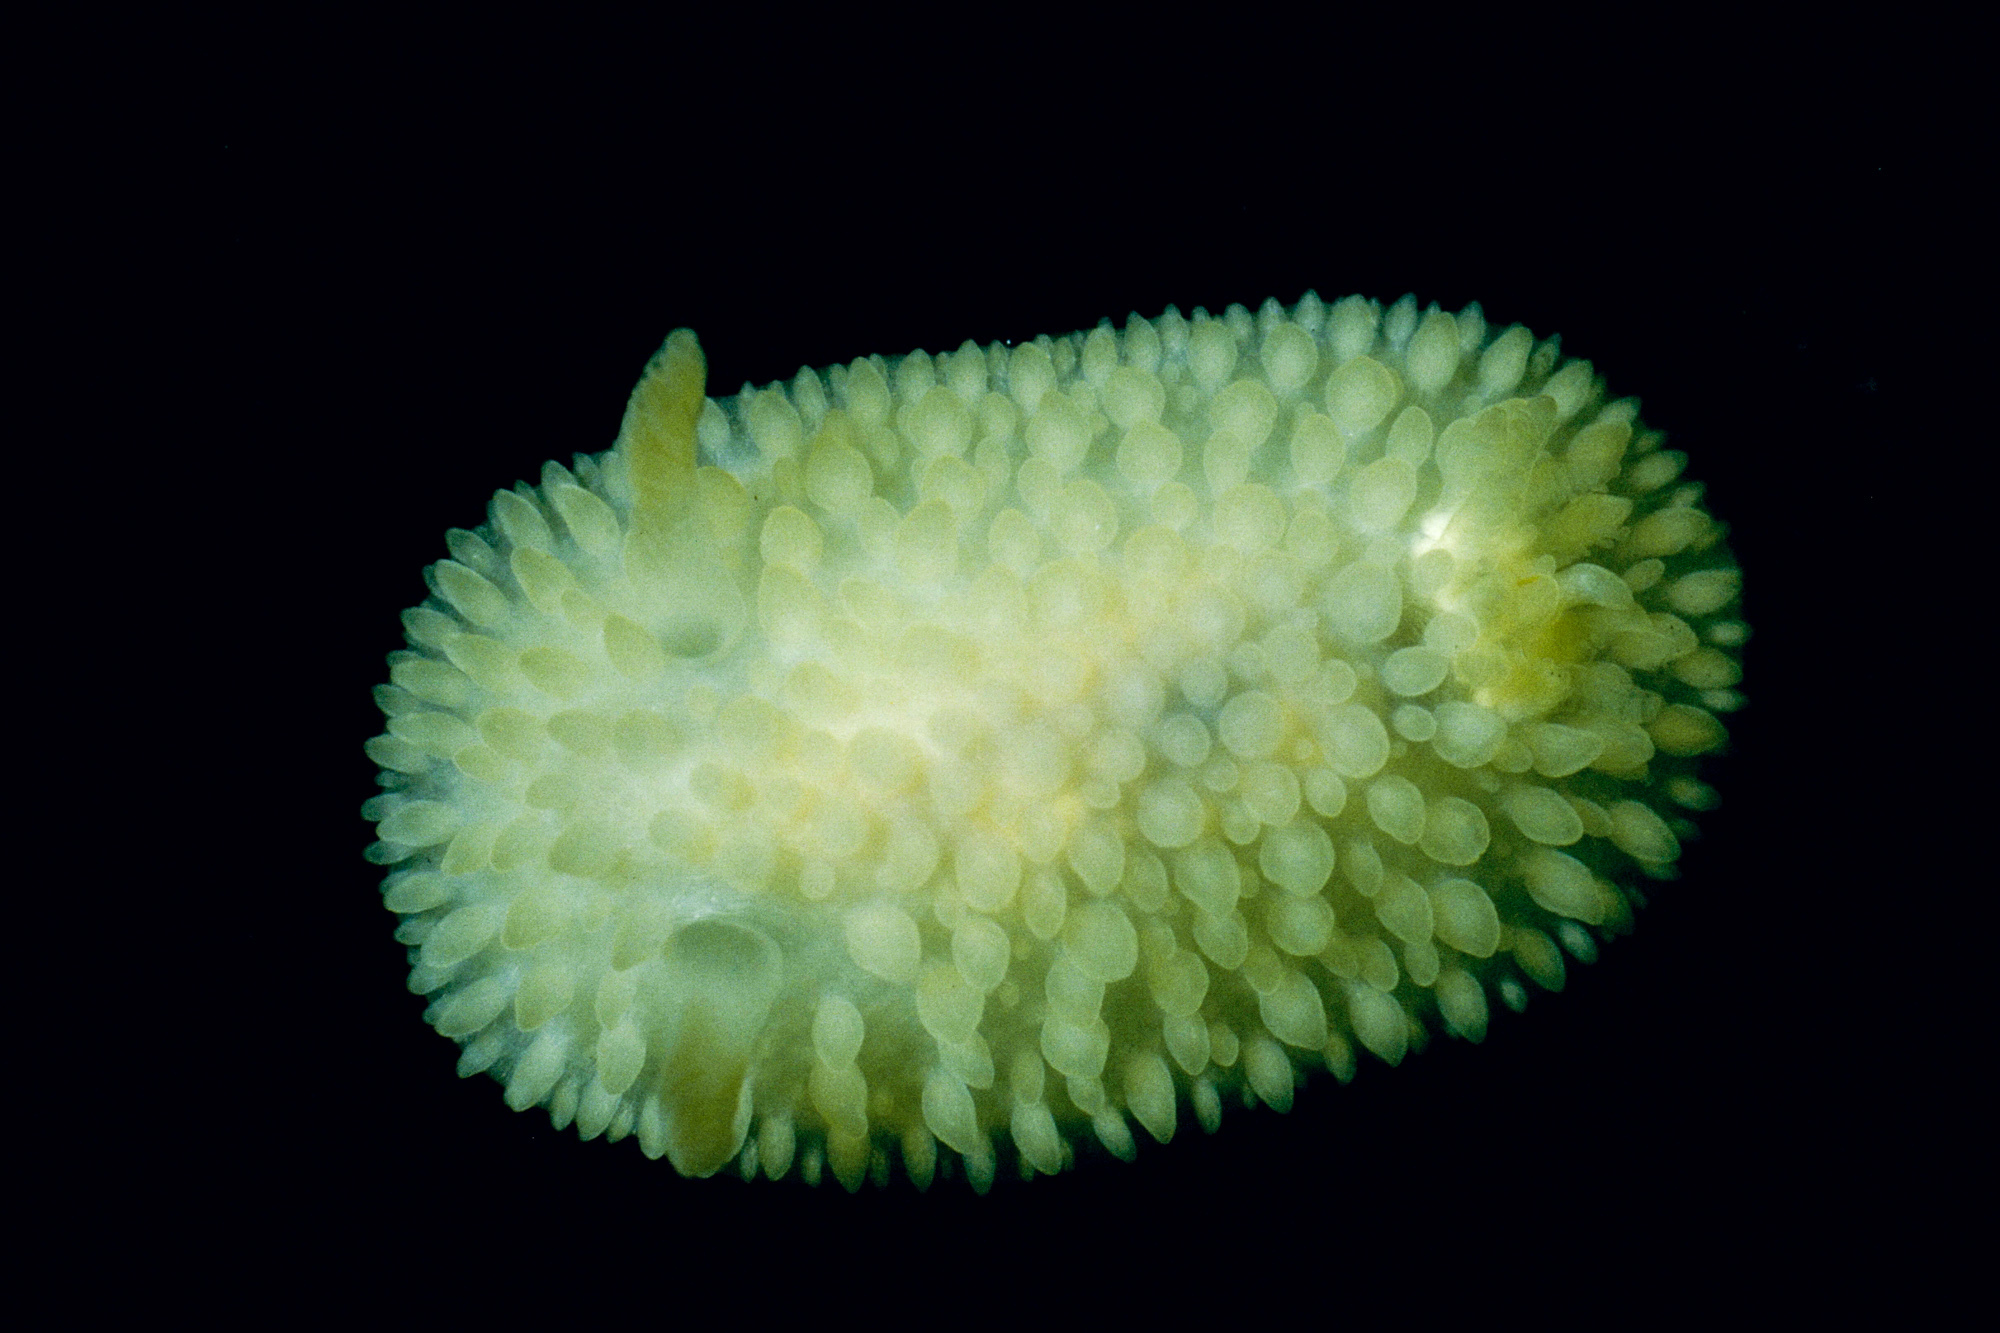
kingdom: Animalia
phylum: Mollusca
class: Gastropoda
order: Nudibranchia
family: Onchidorididae
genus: Adalaria
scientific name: Adalaria proxima
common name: False doris
